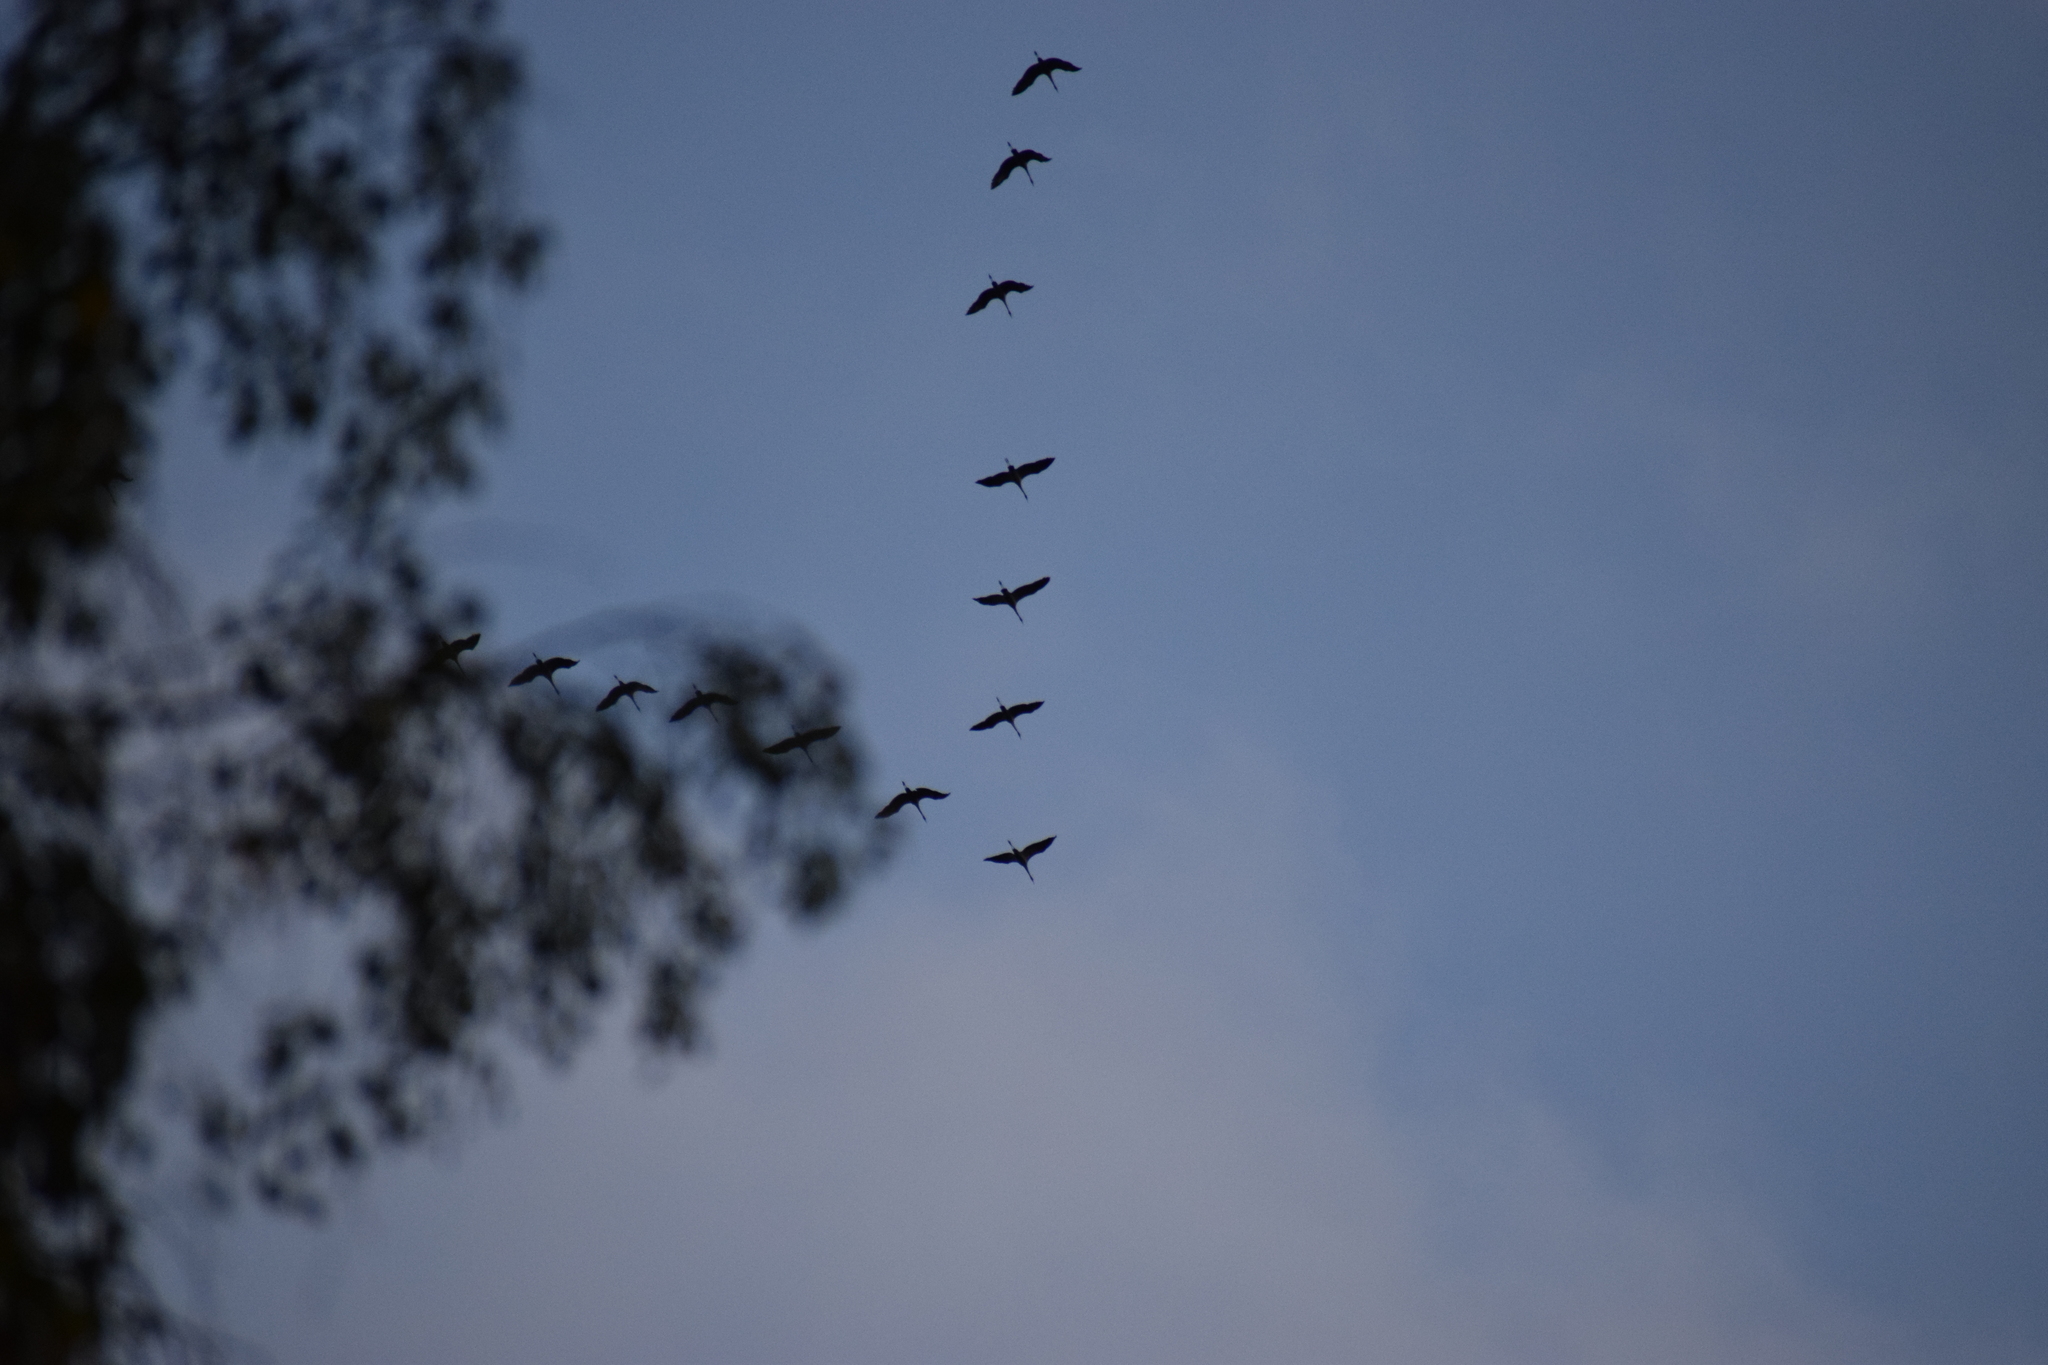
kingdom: Animalia
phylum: Chordata
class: Aves
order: Gruiformes
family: Gruidae
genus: Grus
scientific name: Grus grus
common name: Common crane
